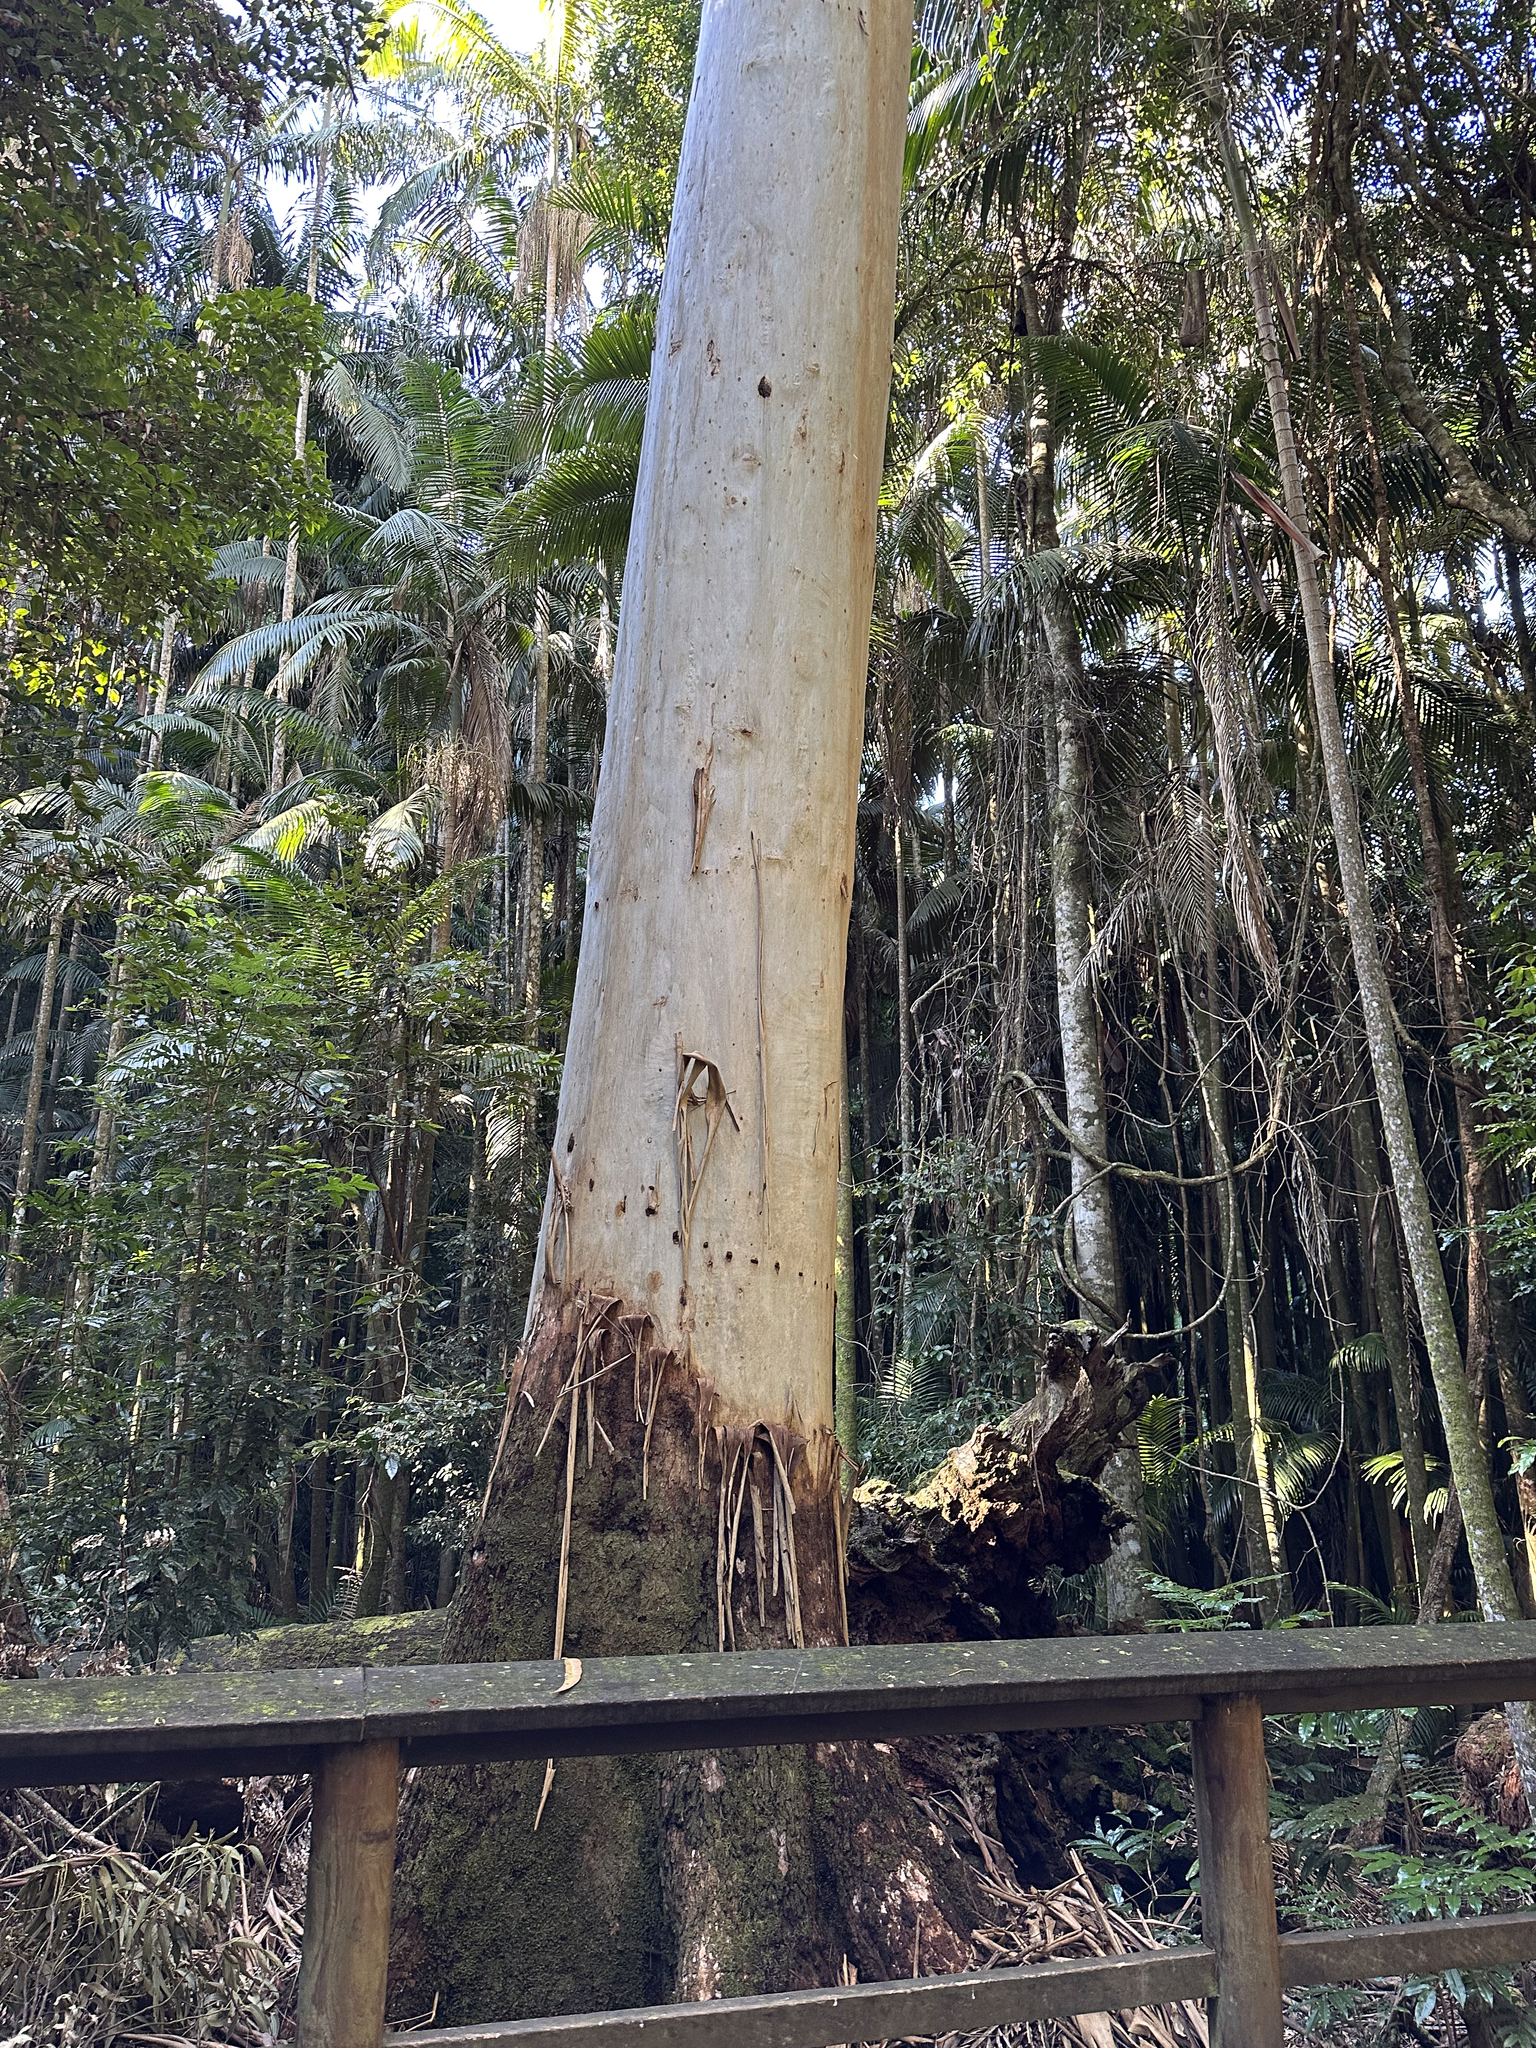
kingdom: Plantae
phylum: Tracheophyta
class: Magnoliopsida
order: Myrtales
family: Myrtaceae
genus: Eucalyptus
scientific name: Eucalyptus grandis
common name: Grand eucalyptus
